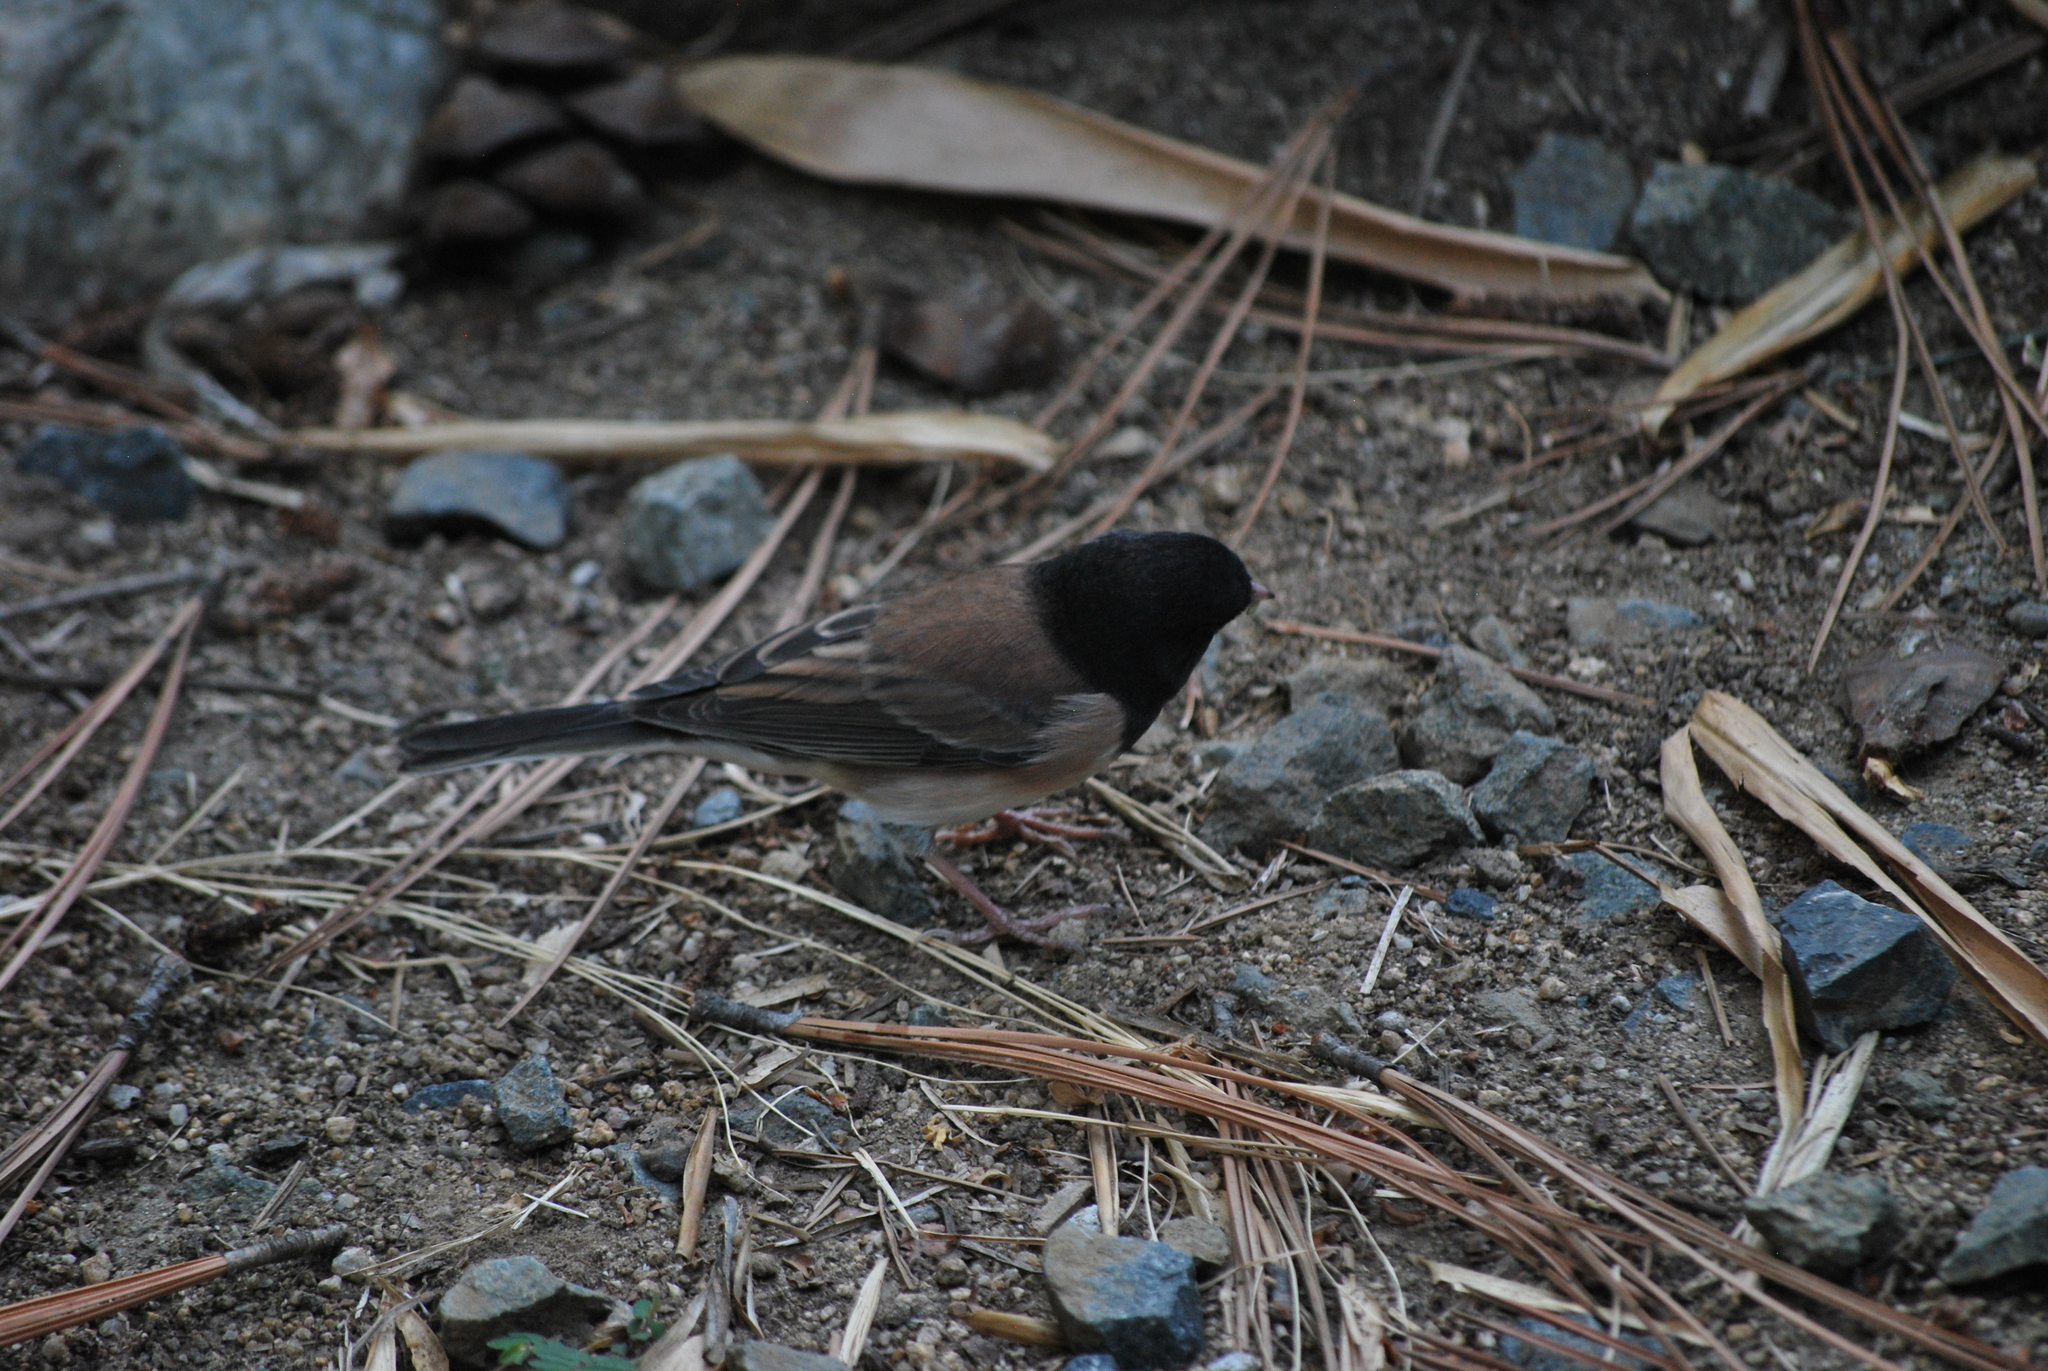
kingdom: Animalia
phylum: Chordata
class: Aves
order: Passeriformes
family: Passerellidae
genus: Junco
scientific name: Junco hyemalis
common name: Dark-eyed junco
